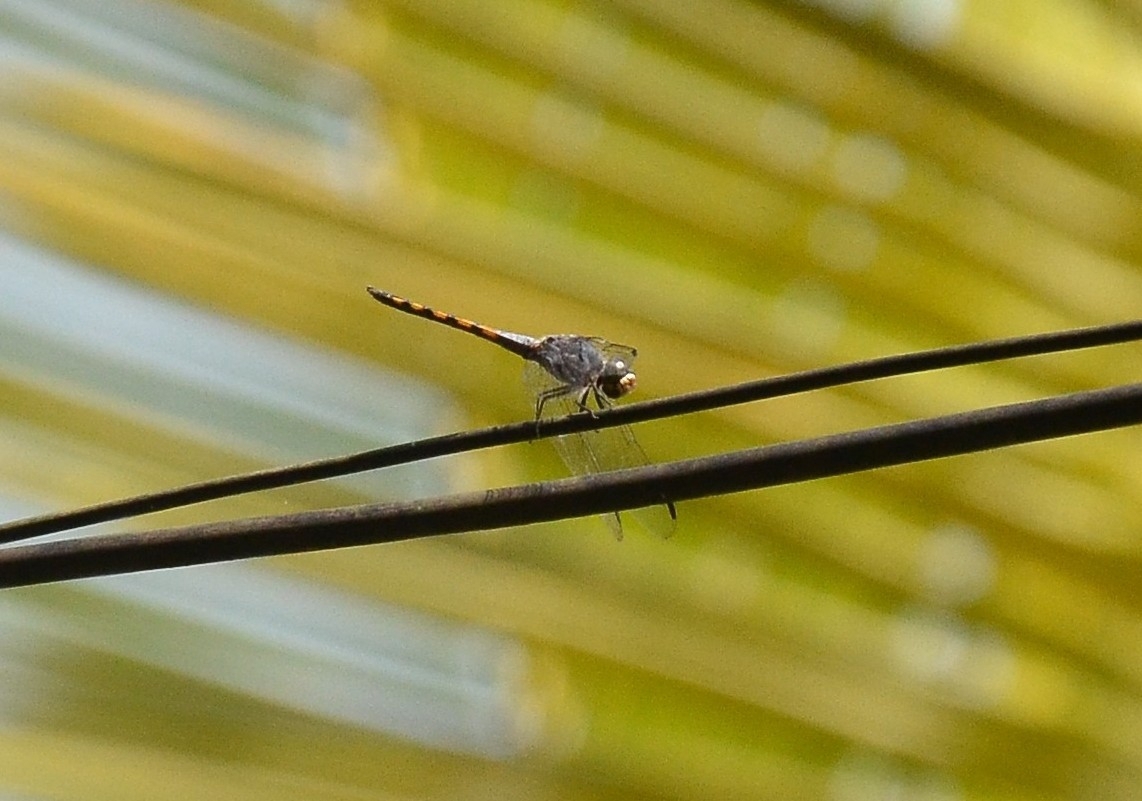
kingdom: Animalia
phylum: Arthropoda
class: Insecta
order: Odonata
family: Libellulidae
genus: Potamarcha
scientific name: Potamarcha congener
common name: Blue chaser
